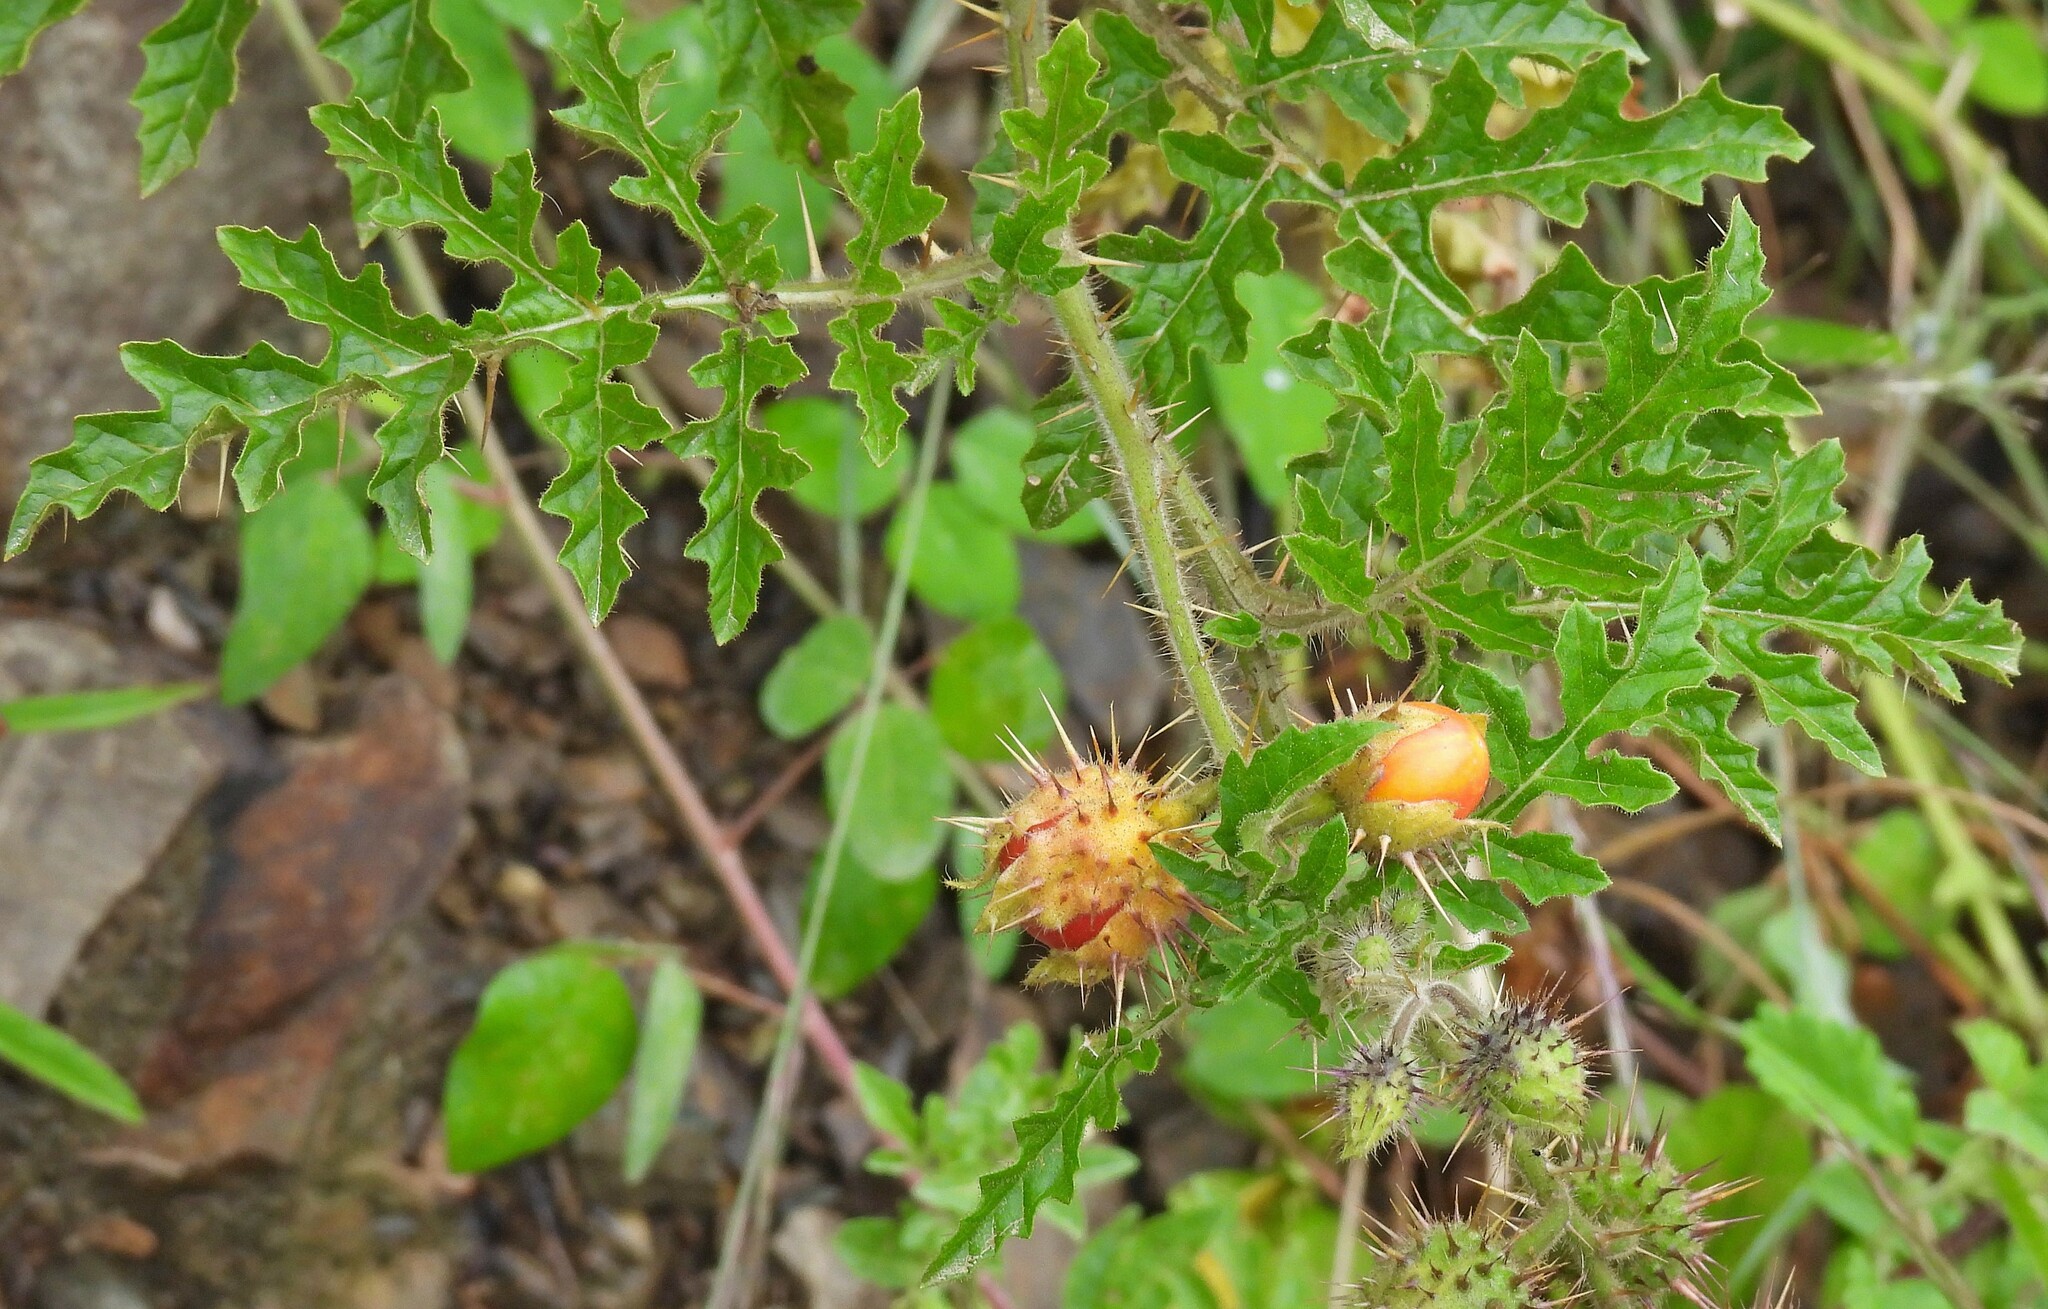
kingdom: Plantae
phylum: Tracheophyta
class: Magnoliopsida
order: Solanales
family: Solanaceae
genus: Solanum
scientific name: Solanum sisymbriifolium
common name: Red buffalo-bur
